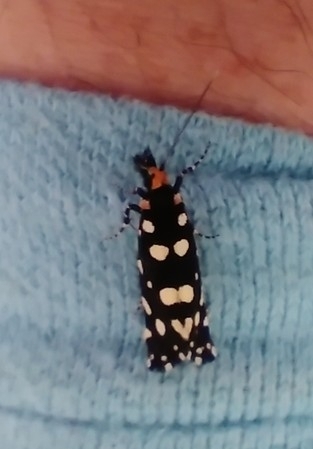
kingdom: Animalia
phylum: Arthropoda
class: Insecta
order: Lepidoptera
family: Tineidae
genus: Euplocamus
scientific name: Euplocamus anthracinalis
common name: Black clothes
